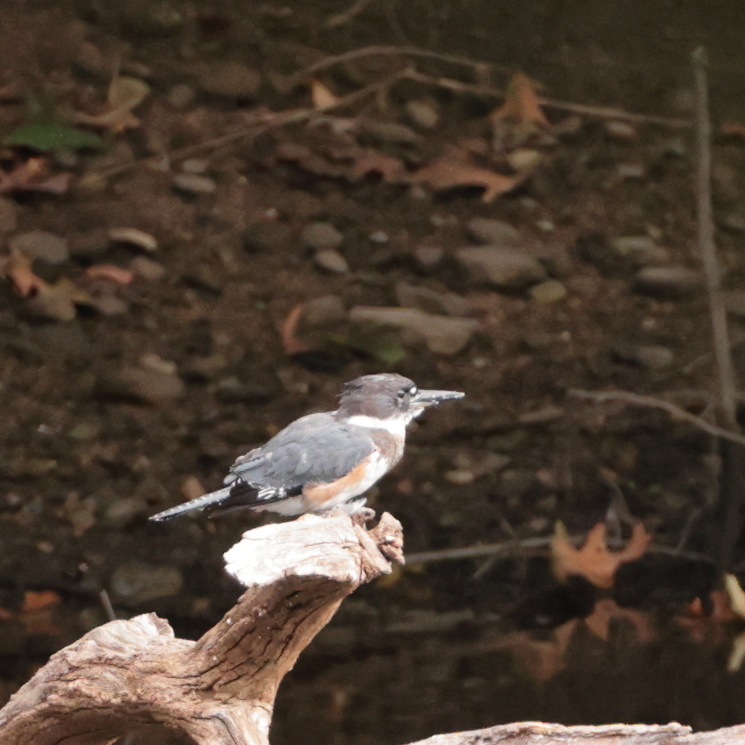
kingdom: Animalia
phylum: Chordata
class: Aves
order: Coraciiformes
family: Alcedinidae
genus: Megaceryle
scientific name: Megaceryle alcyon
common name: Belted kingfisher
